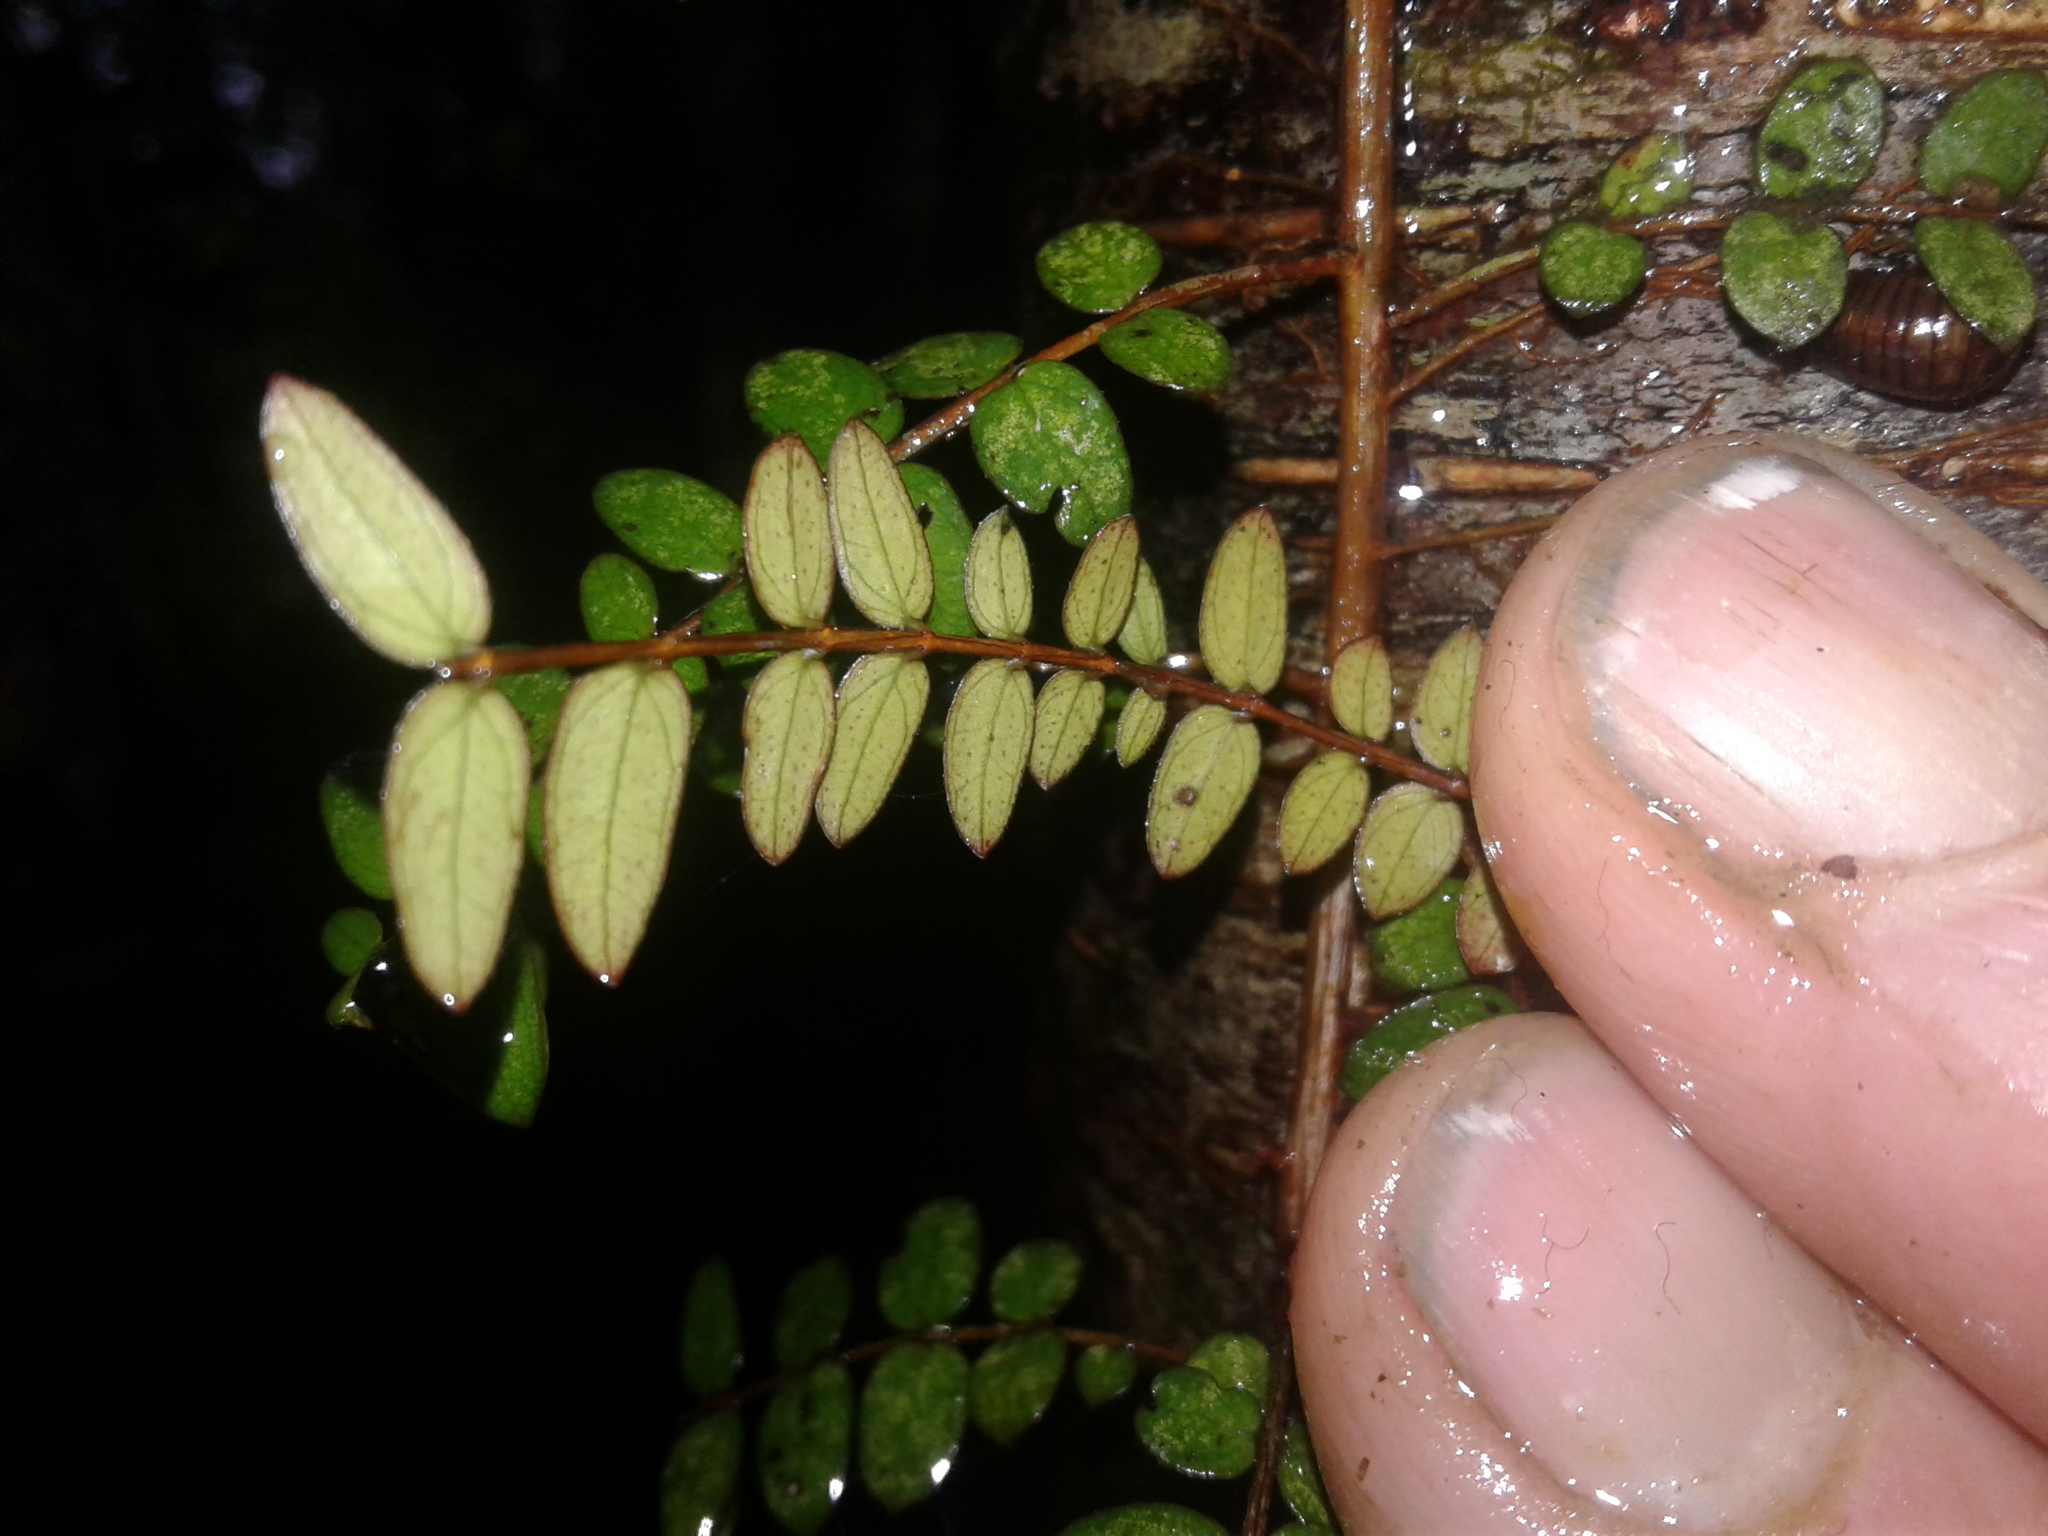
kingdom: Plantae
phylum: Tracheophyta
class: Magnoliopsida
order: Myrtales
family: Myrtaceae
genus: Metrosideros
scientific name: Metrosideros diffusa
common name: Small ratavine
